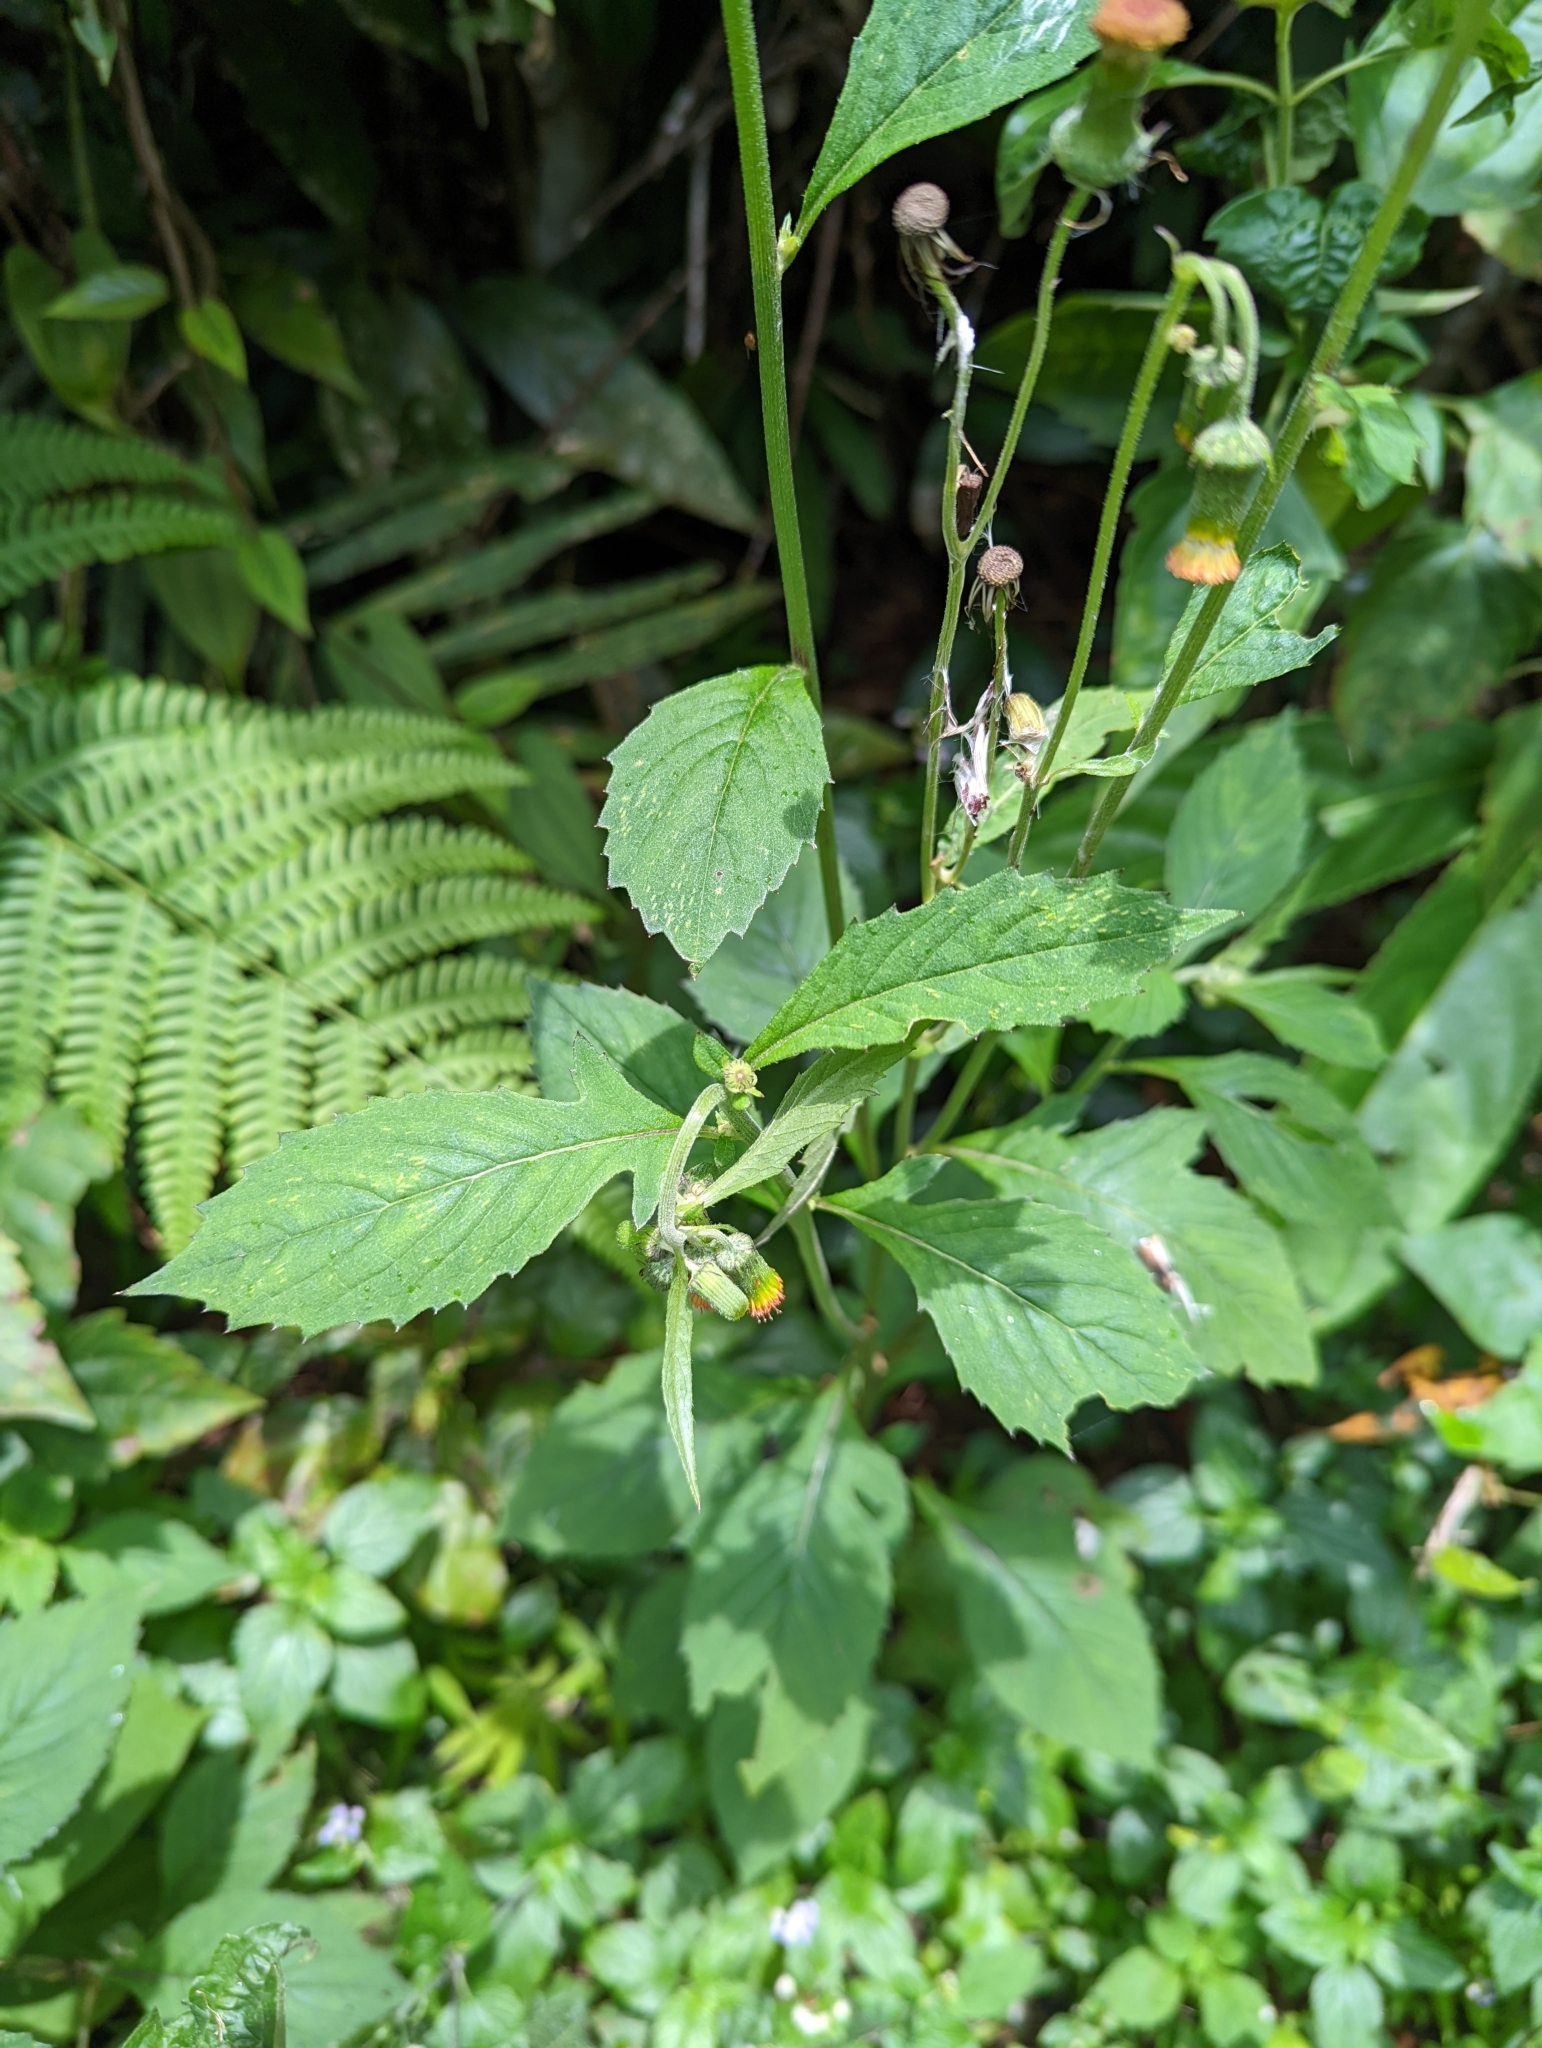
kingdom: Plantae
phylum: Tracheophyta
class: Magnoliopsida
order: Asterales
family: Asteraceae
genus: Crassocephalum
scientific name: Crassocephalum crepidioides
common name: Redflower ragleaf
